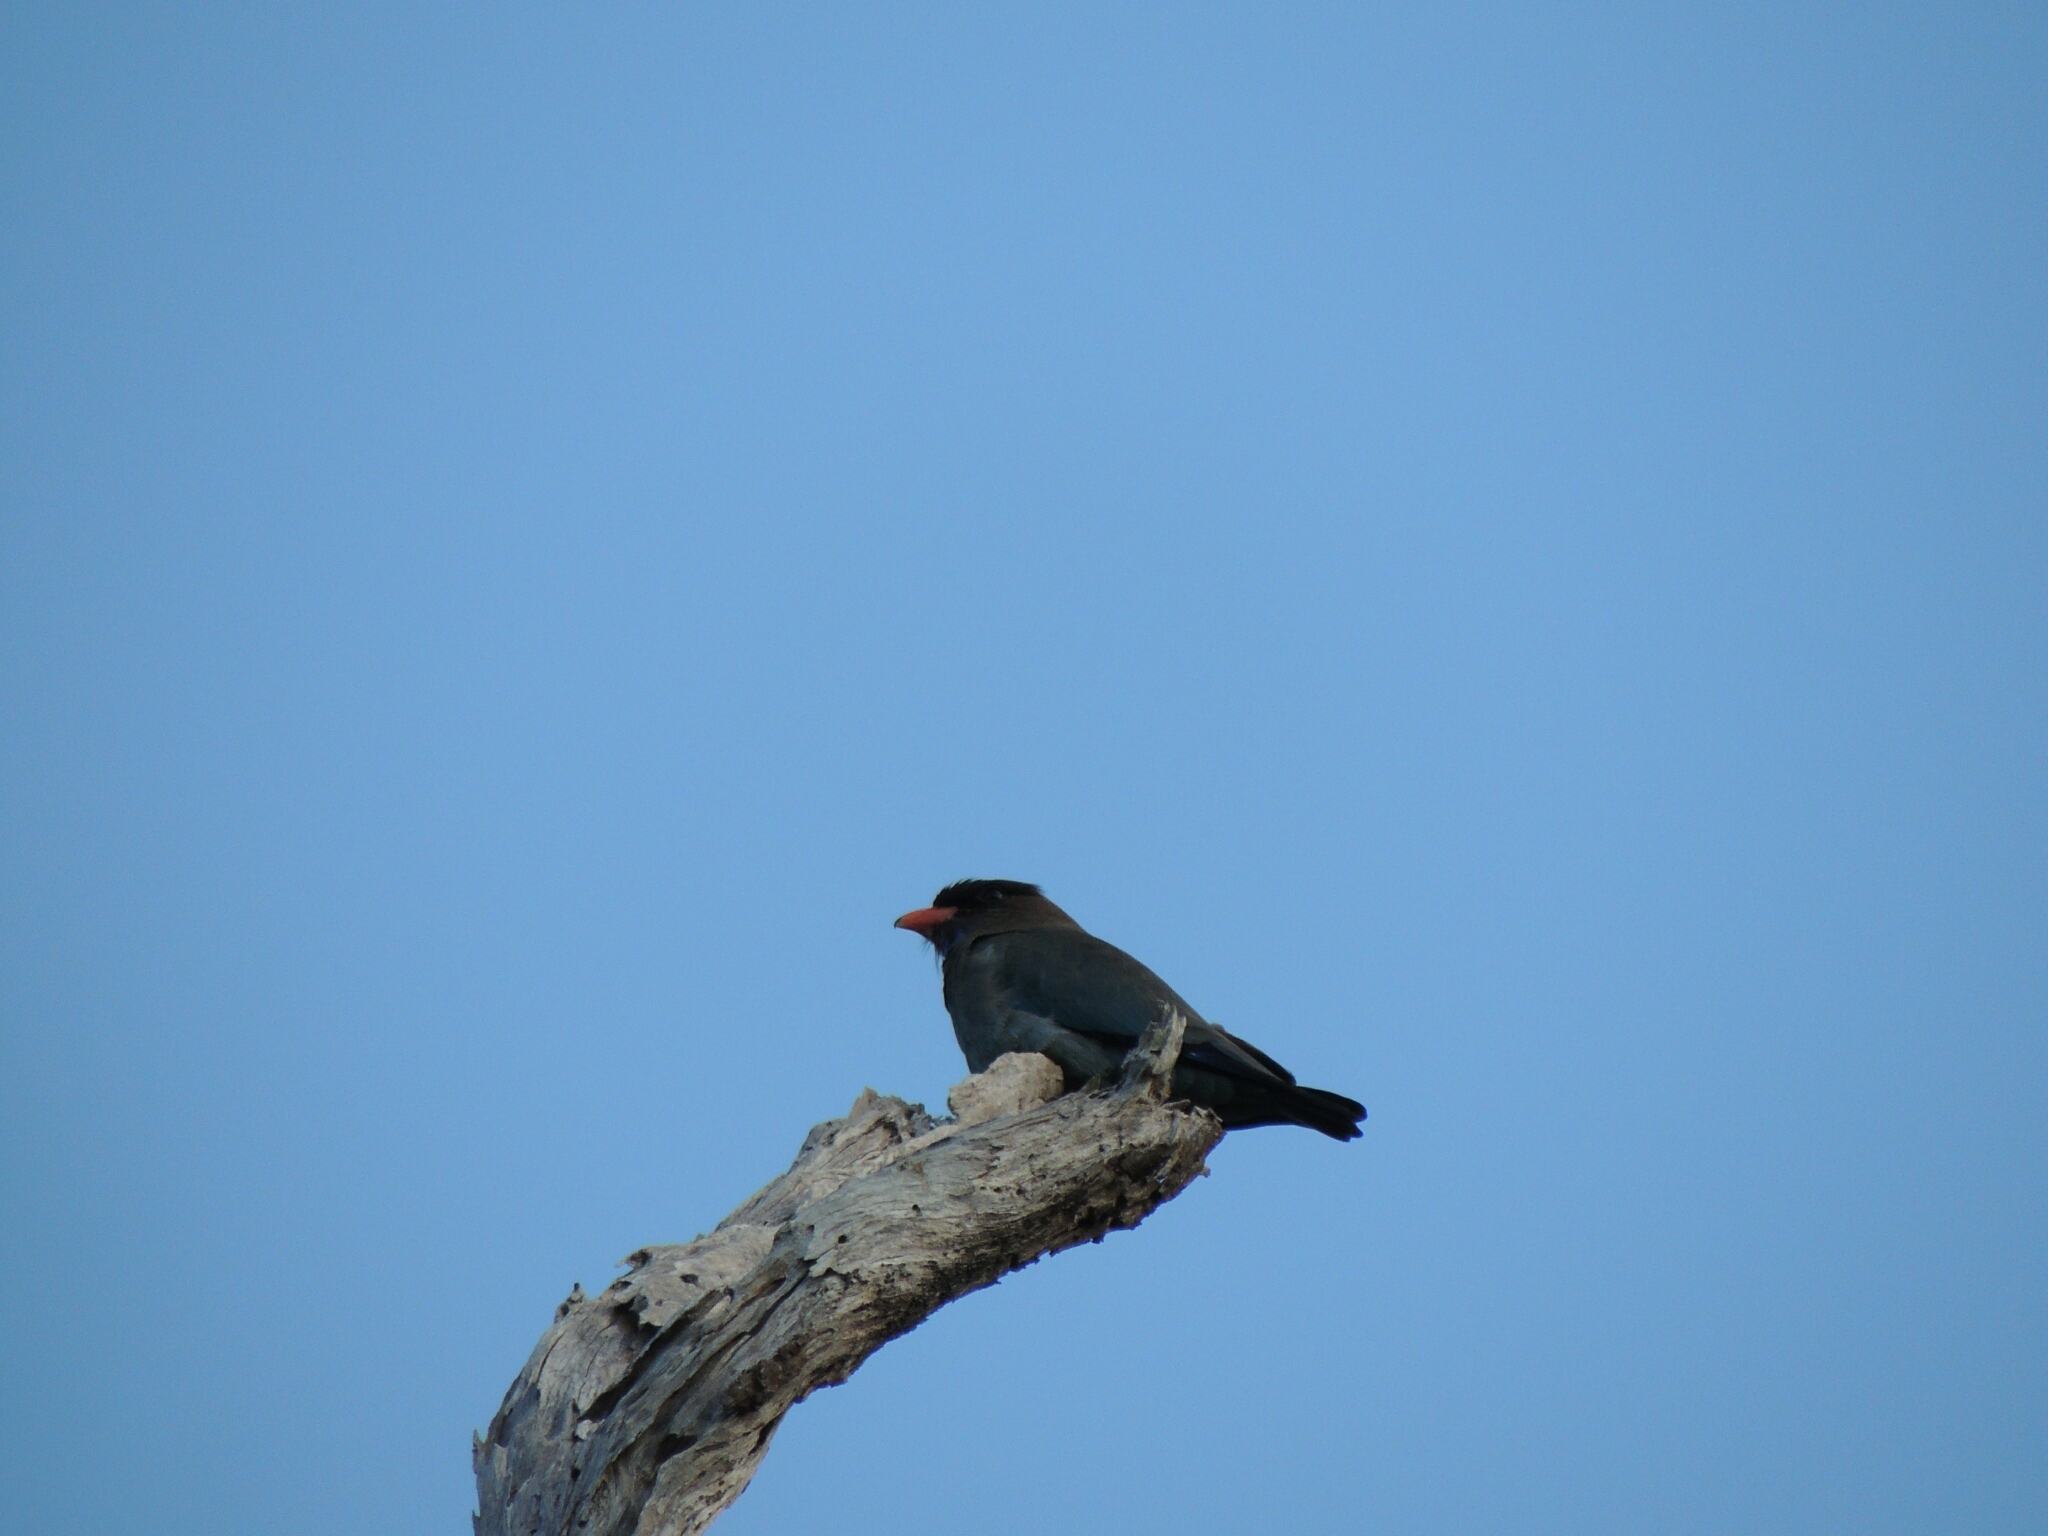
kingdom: Animalia
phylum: Chordata
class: Aves
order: Coraciiformes
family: Coraciidae
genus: Eurystomus
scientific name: Eurystomus orientalis
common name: Oriental dollarbird
